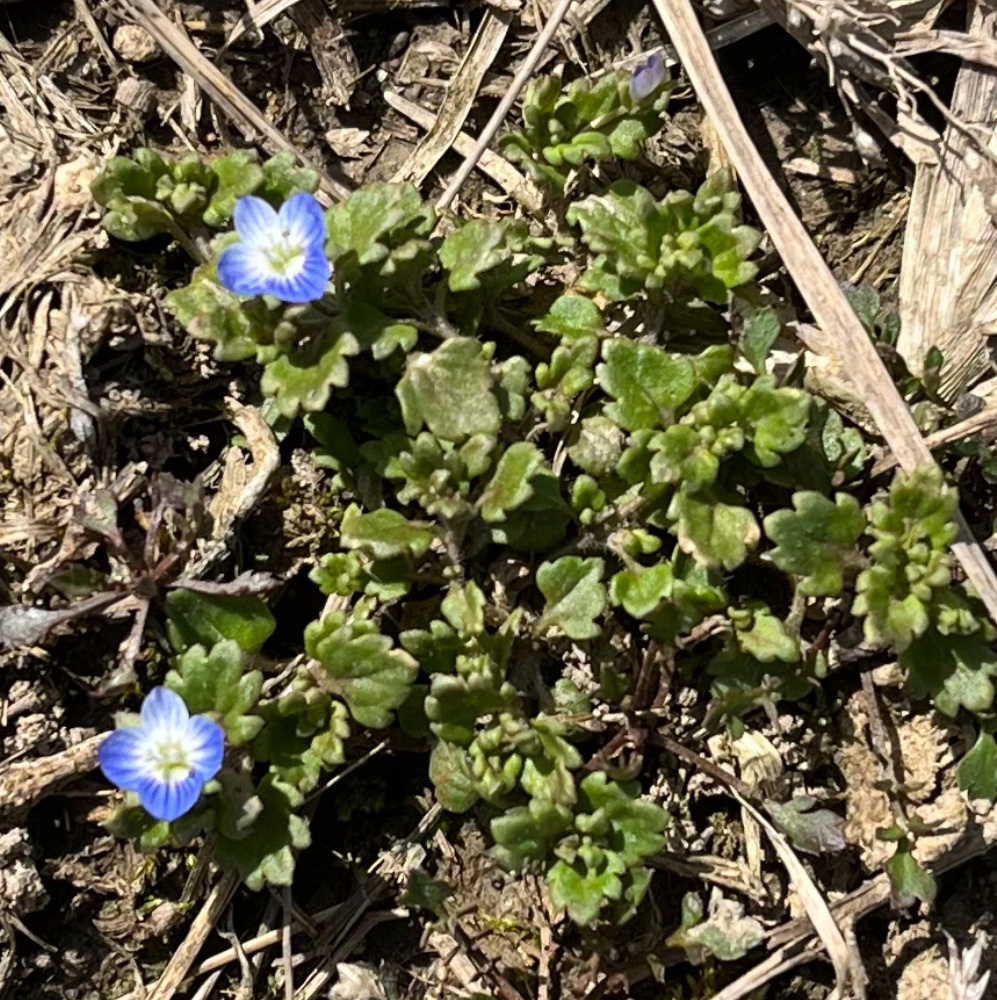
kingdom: Plantae
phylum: Tracheophyta
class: Magnoliopsida
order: Lamiales
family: Plantaginaceae
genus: Veronica
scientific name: Veronica polita
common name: Grey field-speedwell
